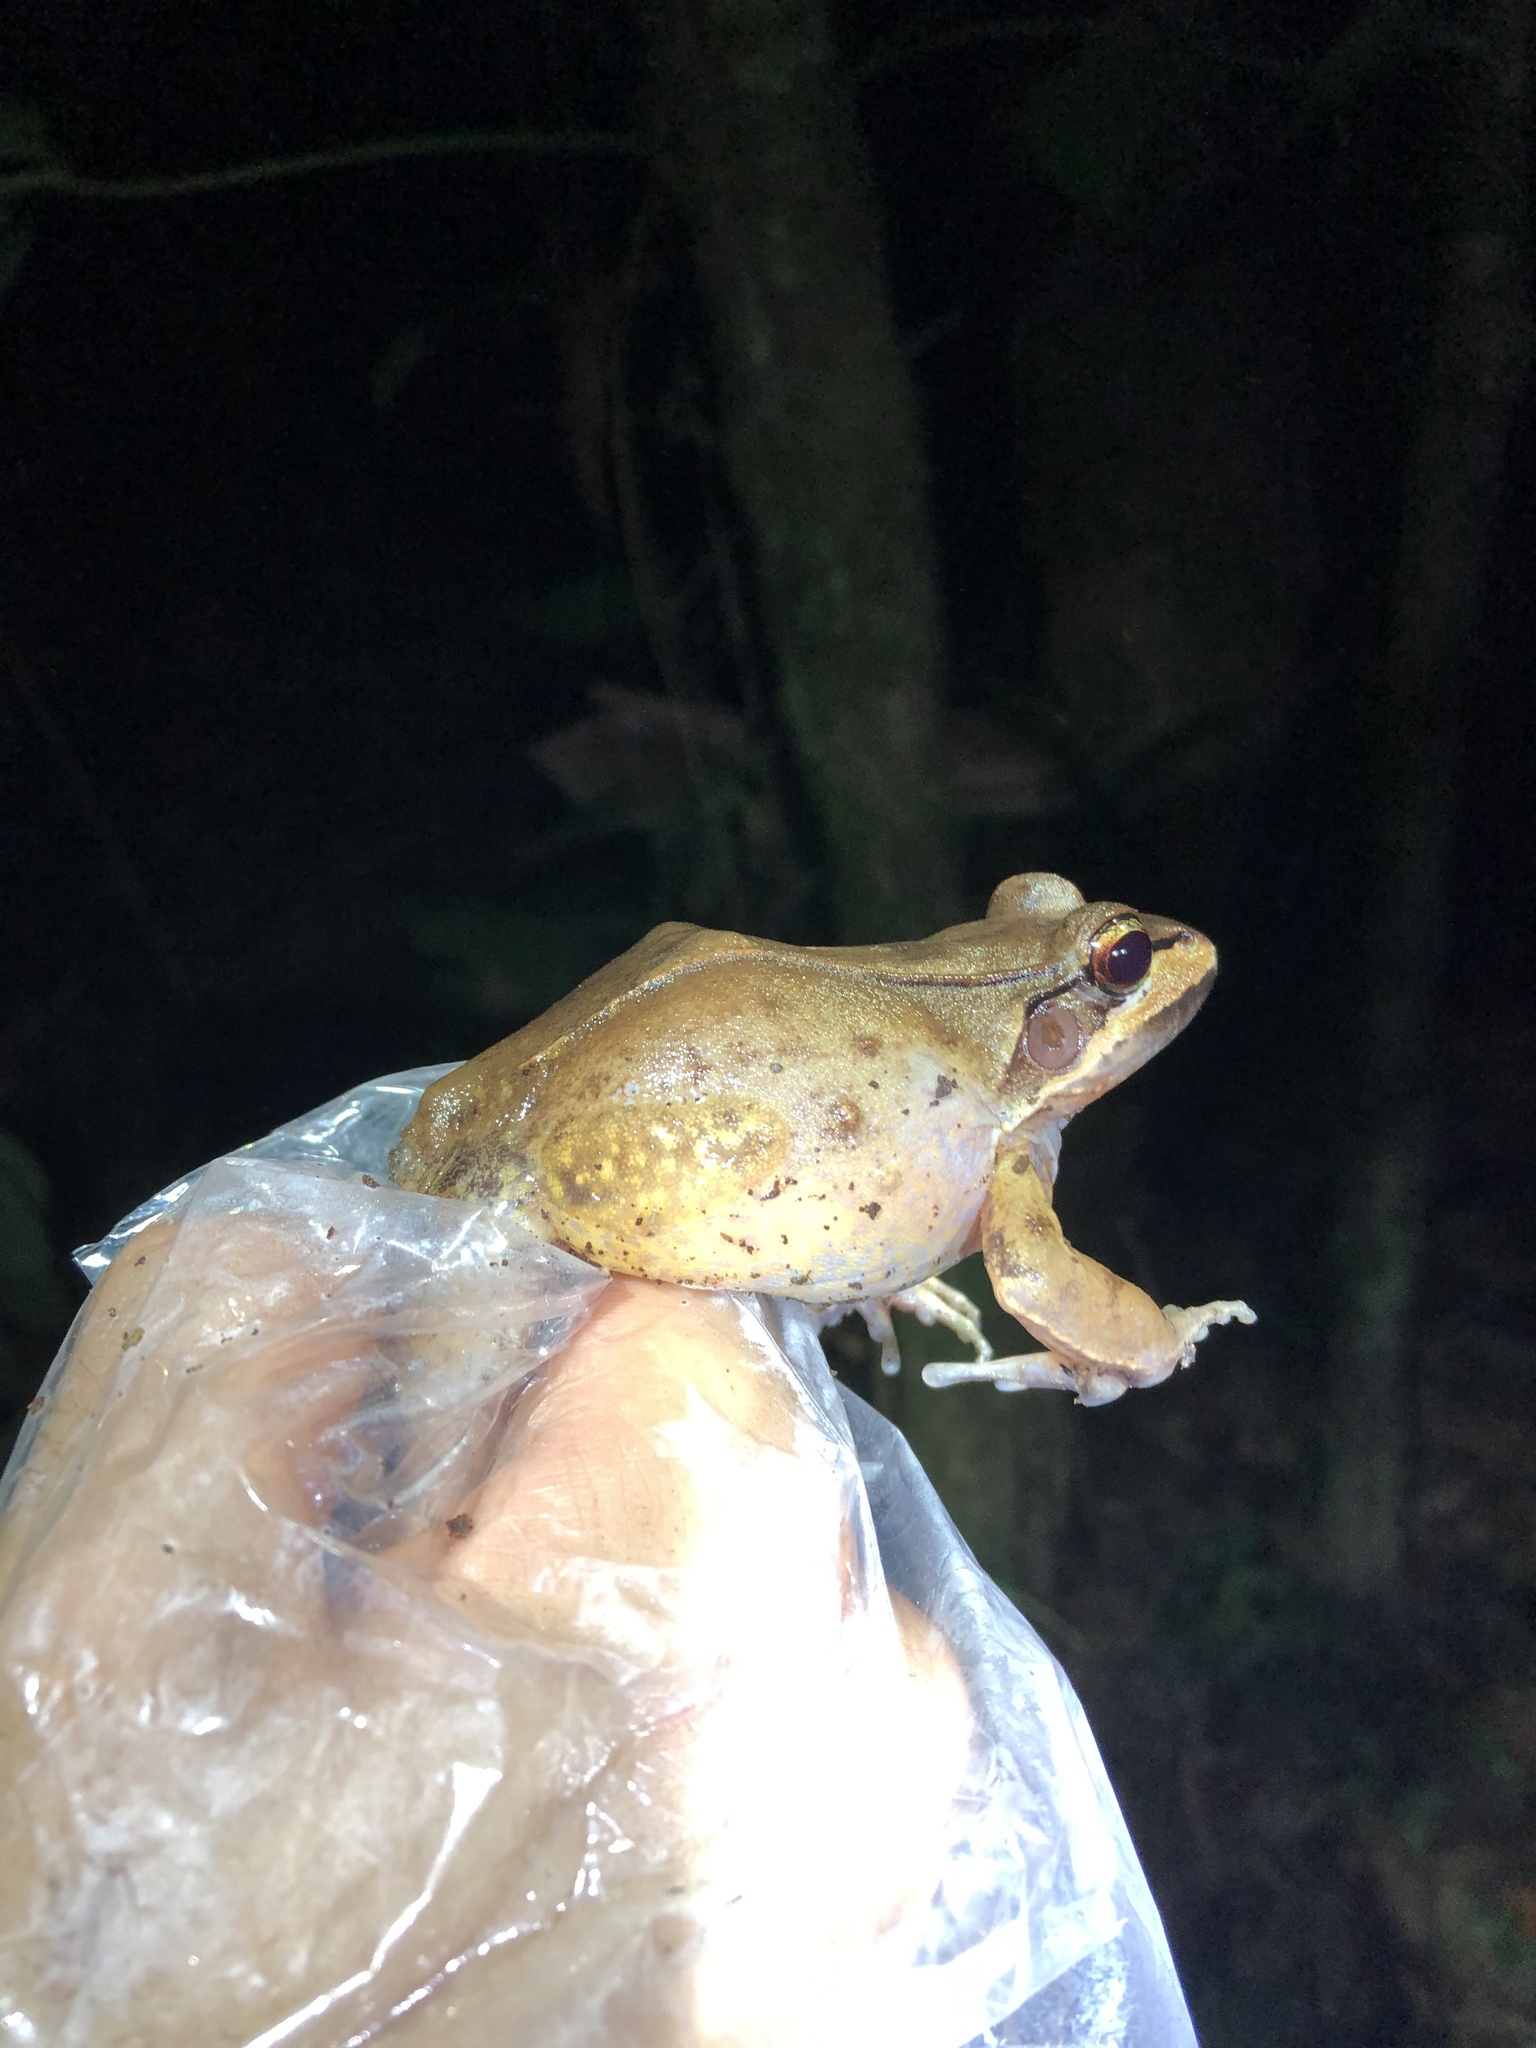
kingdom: Animalia
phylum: Chordata
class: Amphibia
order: Anura
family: Leptodactylidae
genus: Leptodactylus
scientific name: Leptodactylus rhodomystax
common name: Loreto white-lipped frog
